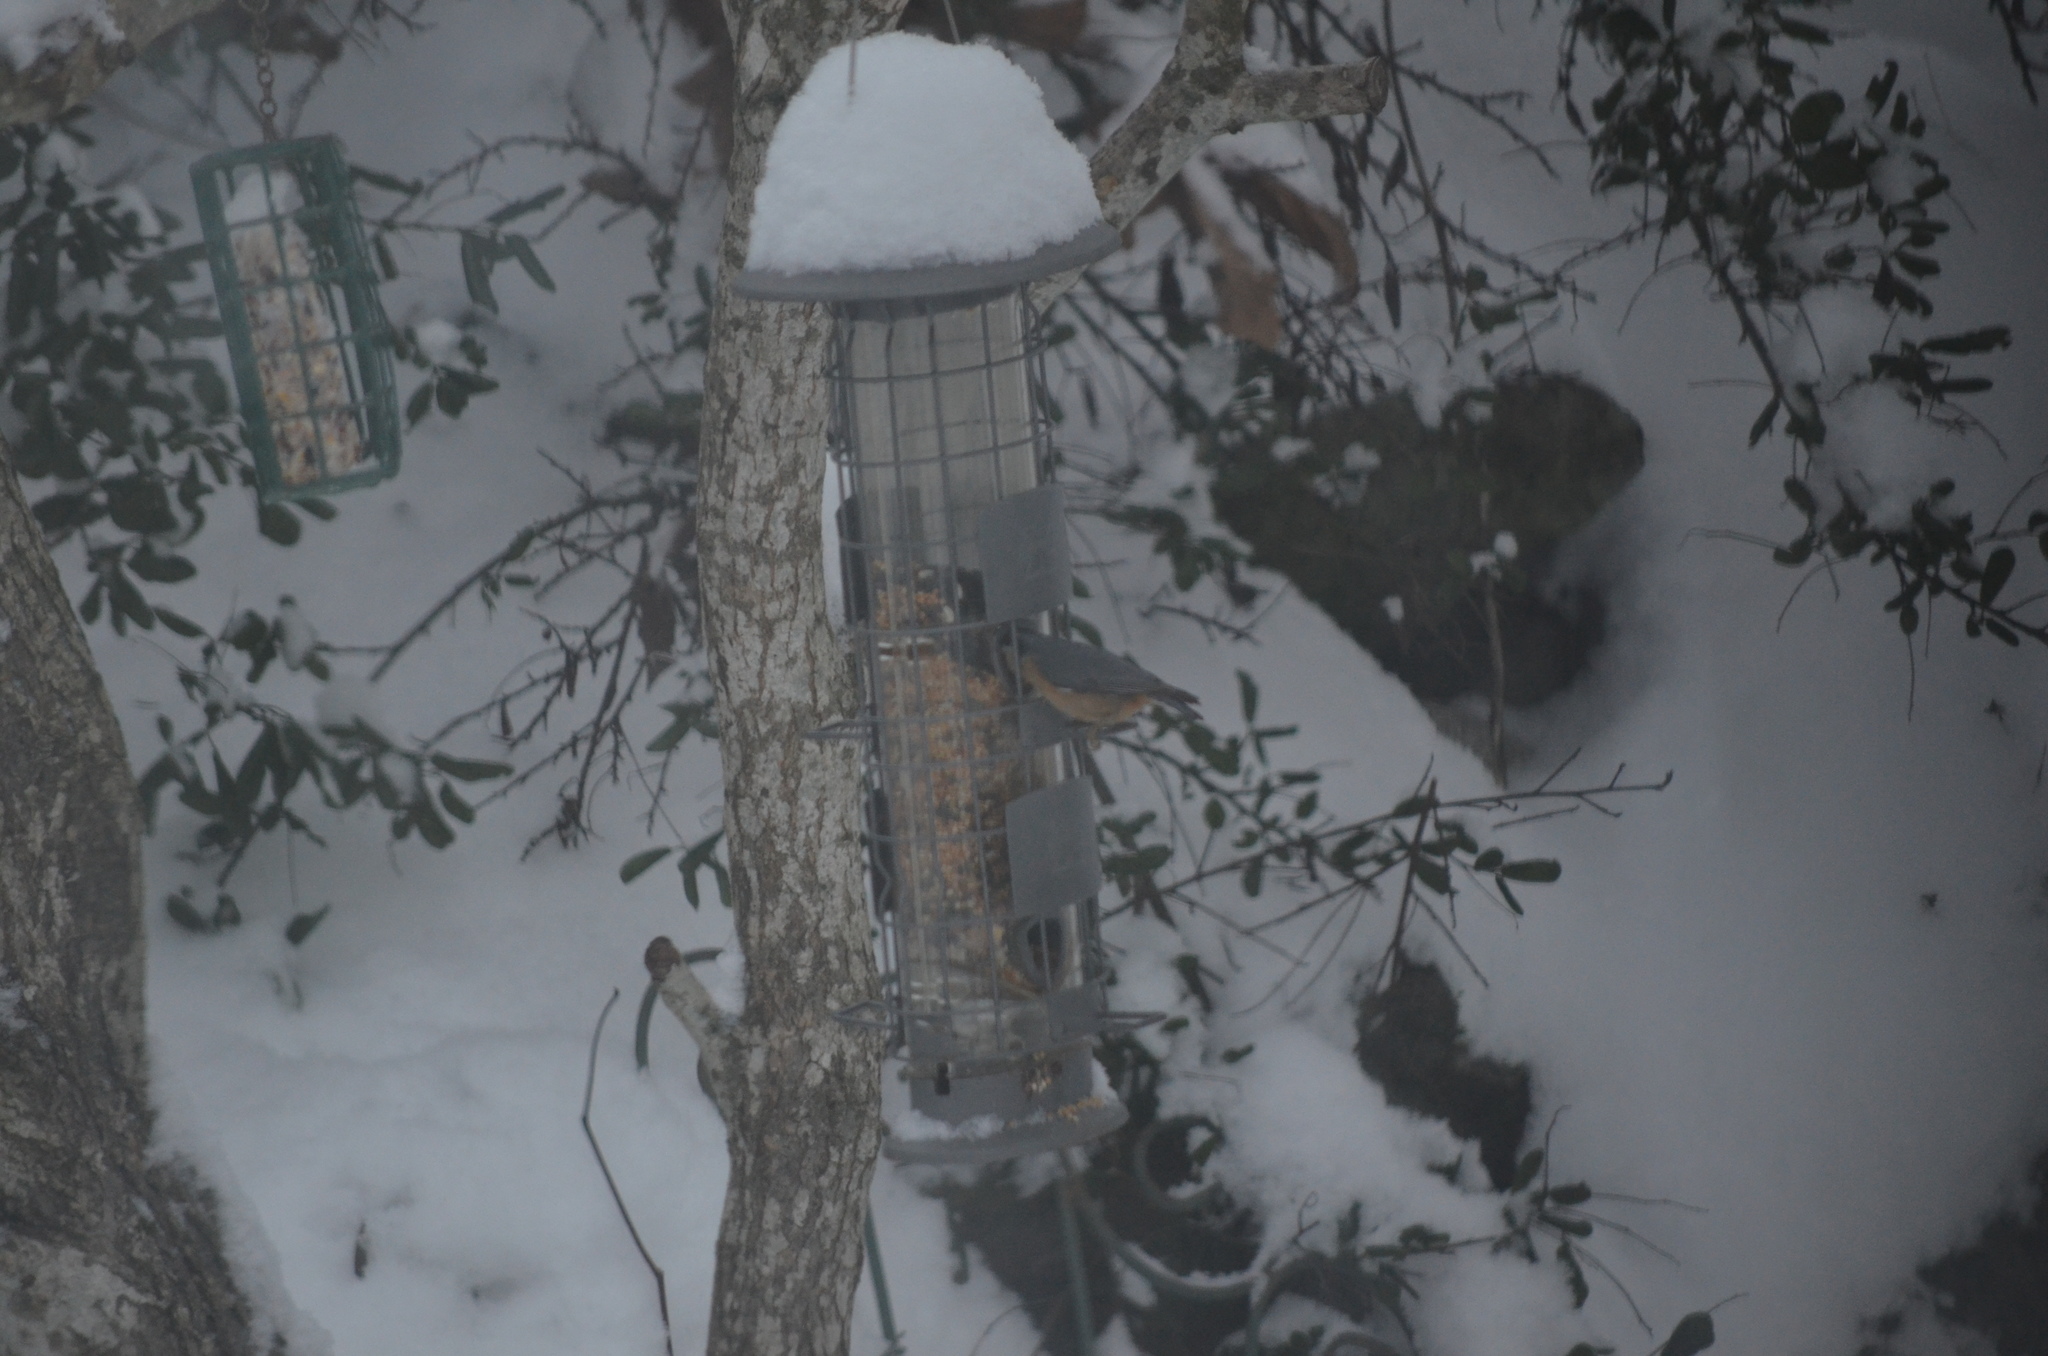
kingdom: Animalia
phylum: Chordata
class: Aves
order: Passeriformes
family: Sittidae
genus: Sitta
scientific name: Sitta canadensis
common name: Red-breasted nuthatch
